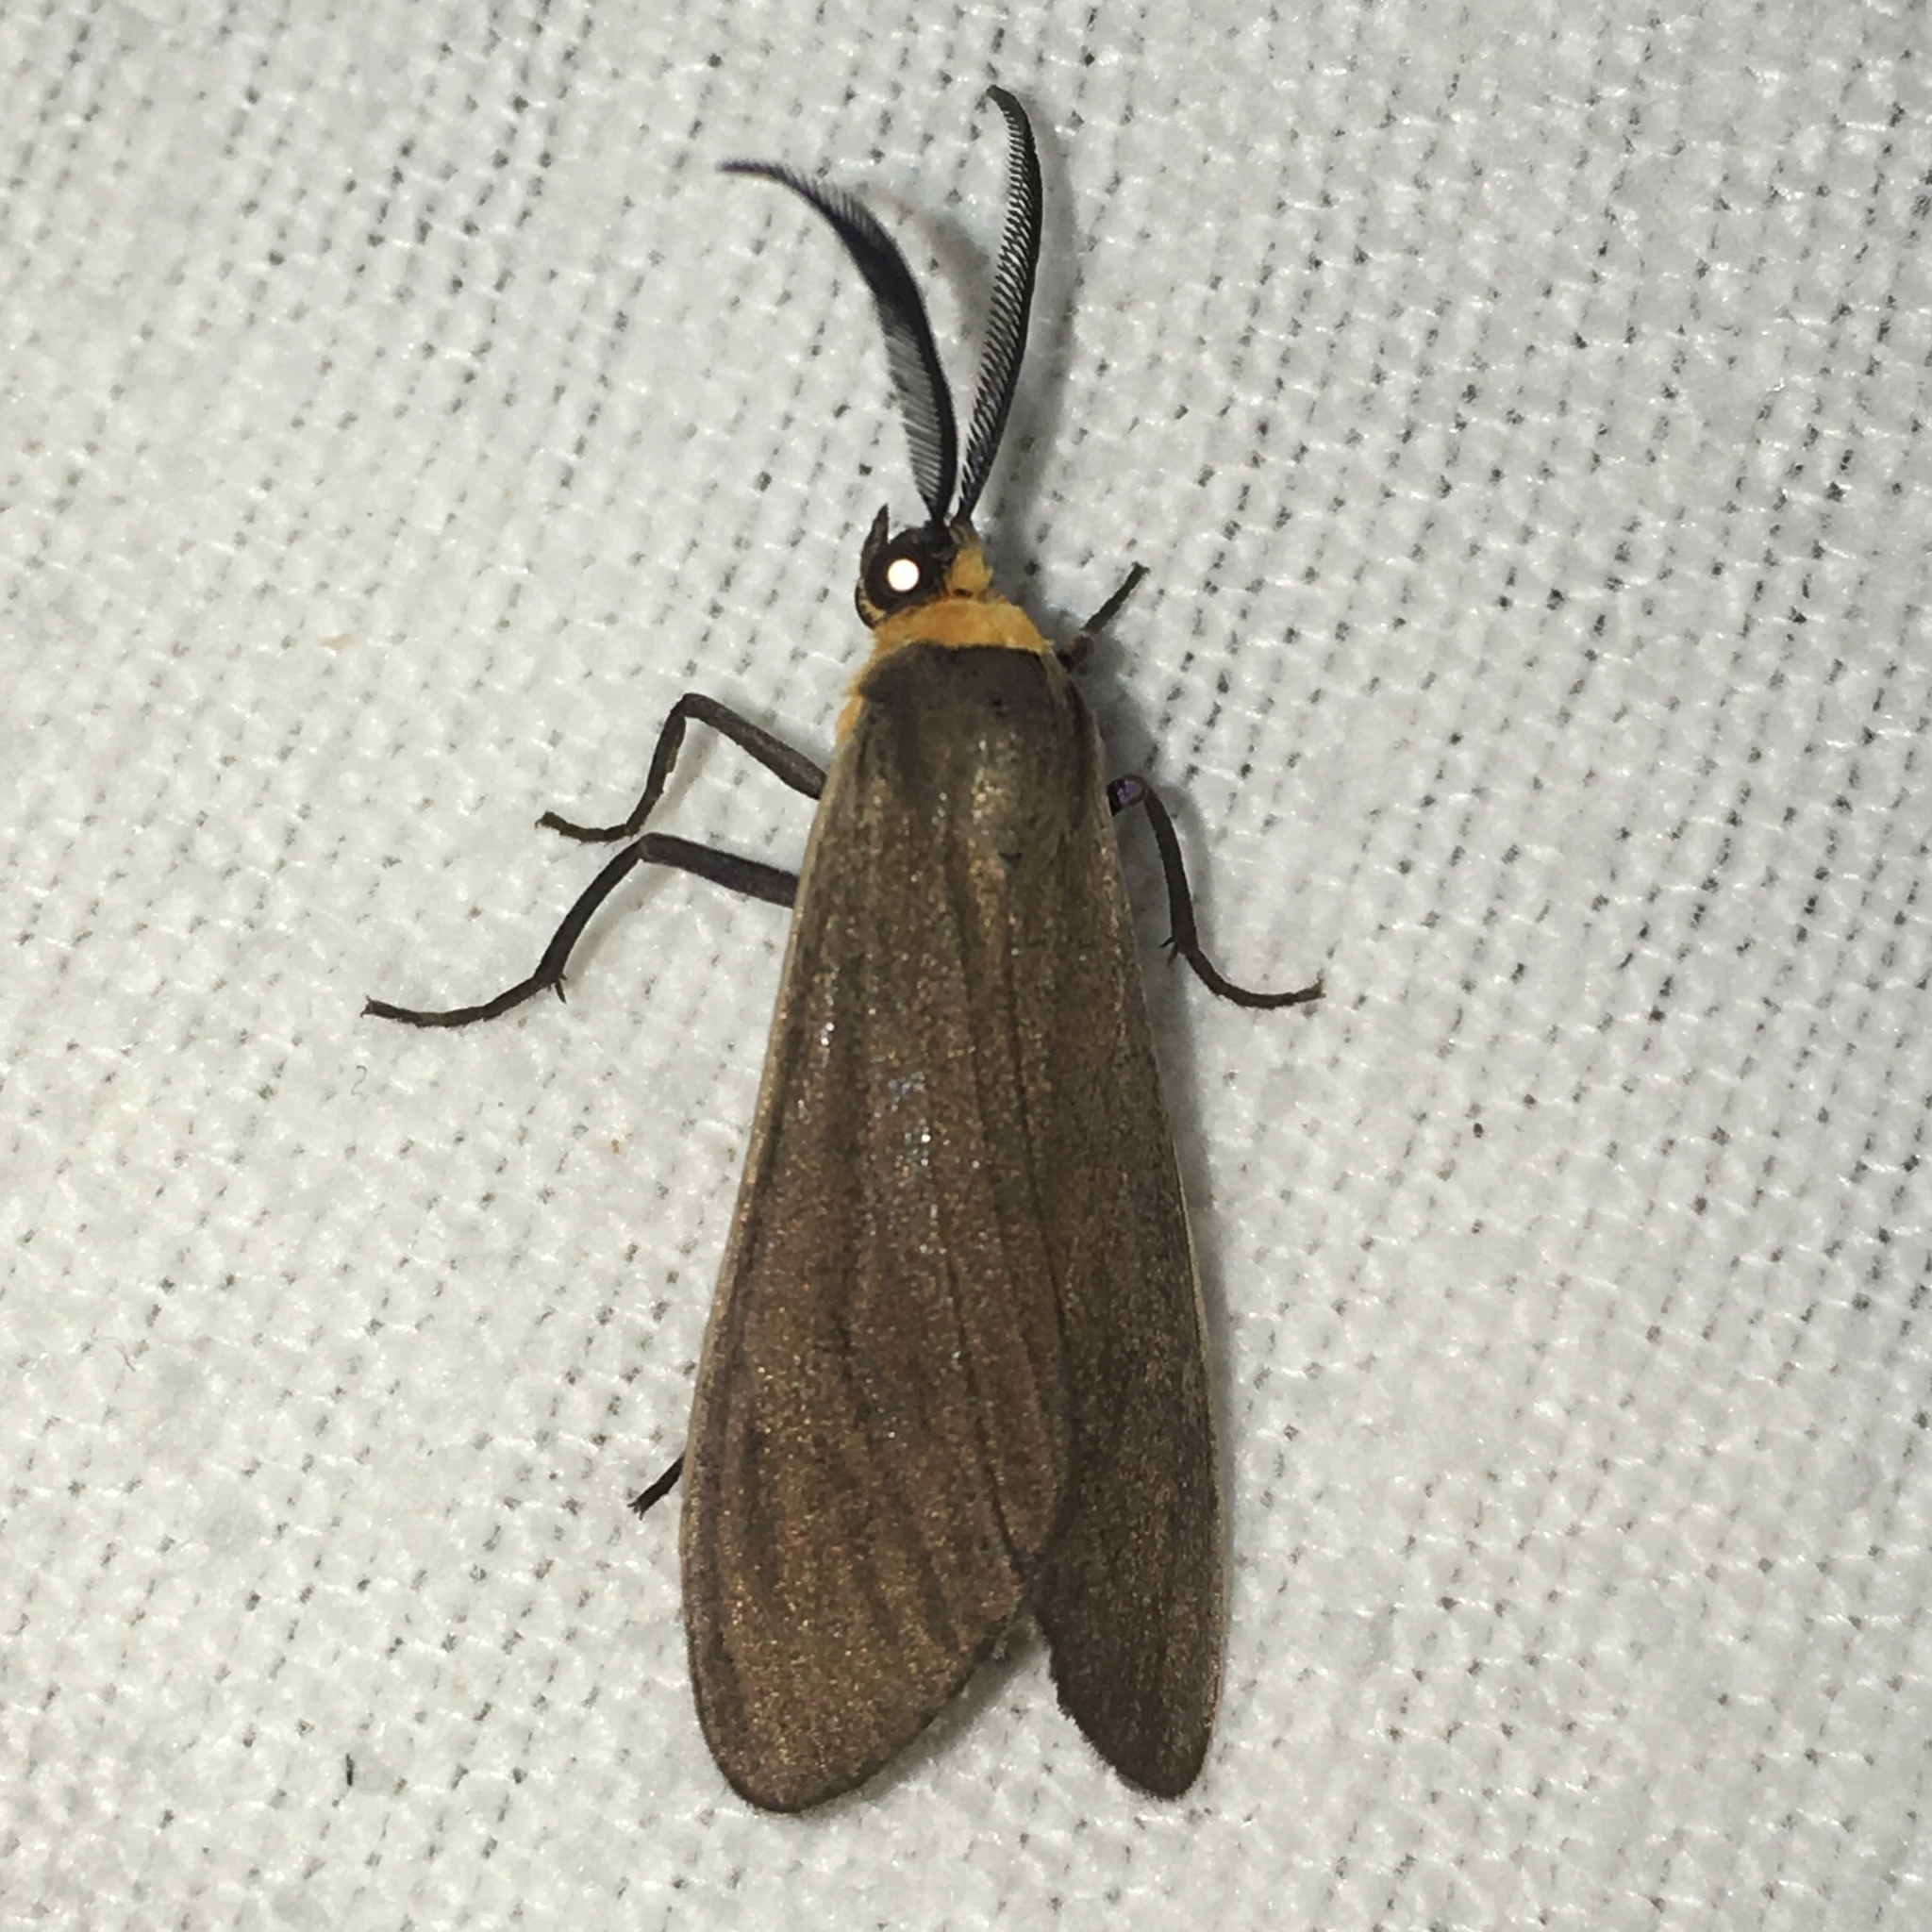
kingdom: Animalia
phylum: Arthropoda
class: Insecta
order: Lepidoptera
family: Erebidae
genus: Cisseps
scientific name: Cisseps fulvicollis
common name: Yellow-collared scape moth
